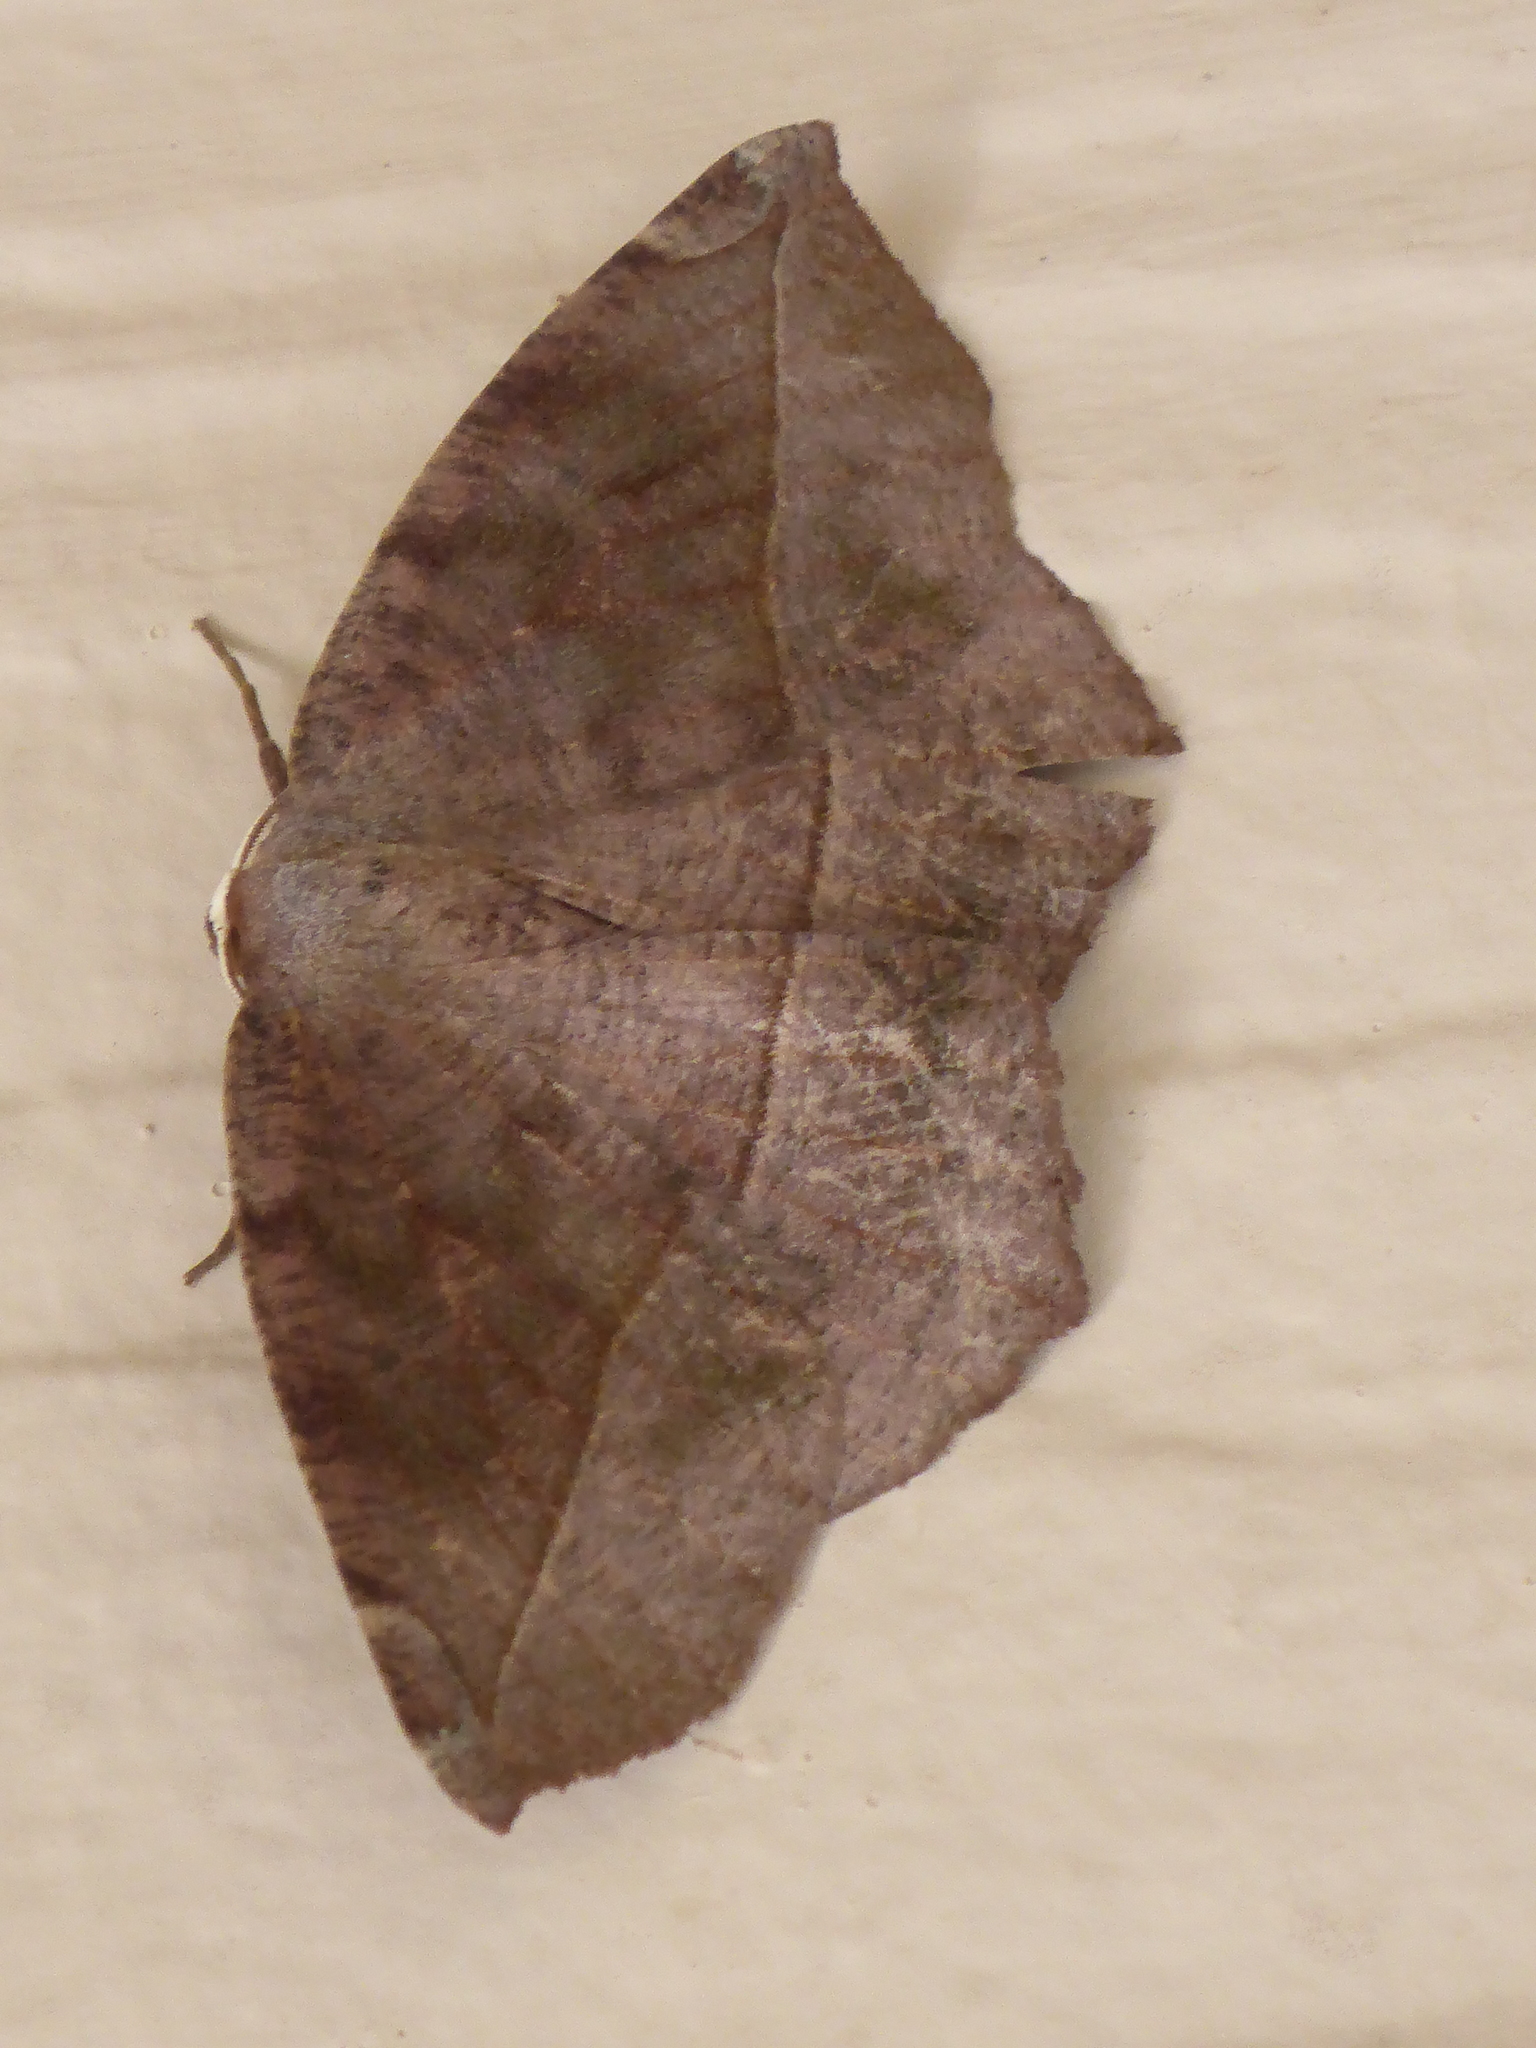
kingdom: Animalia
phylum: Arthropoda
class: Insecta
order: Lepidoptera
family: Geometridae
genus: Eutrapela
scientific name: Eutrapela clemataria
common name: Curved-toothed geometer
